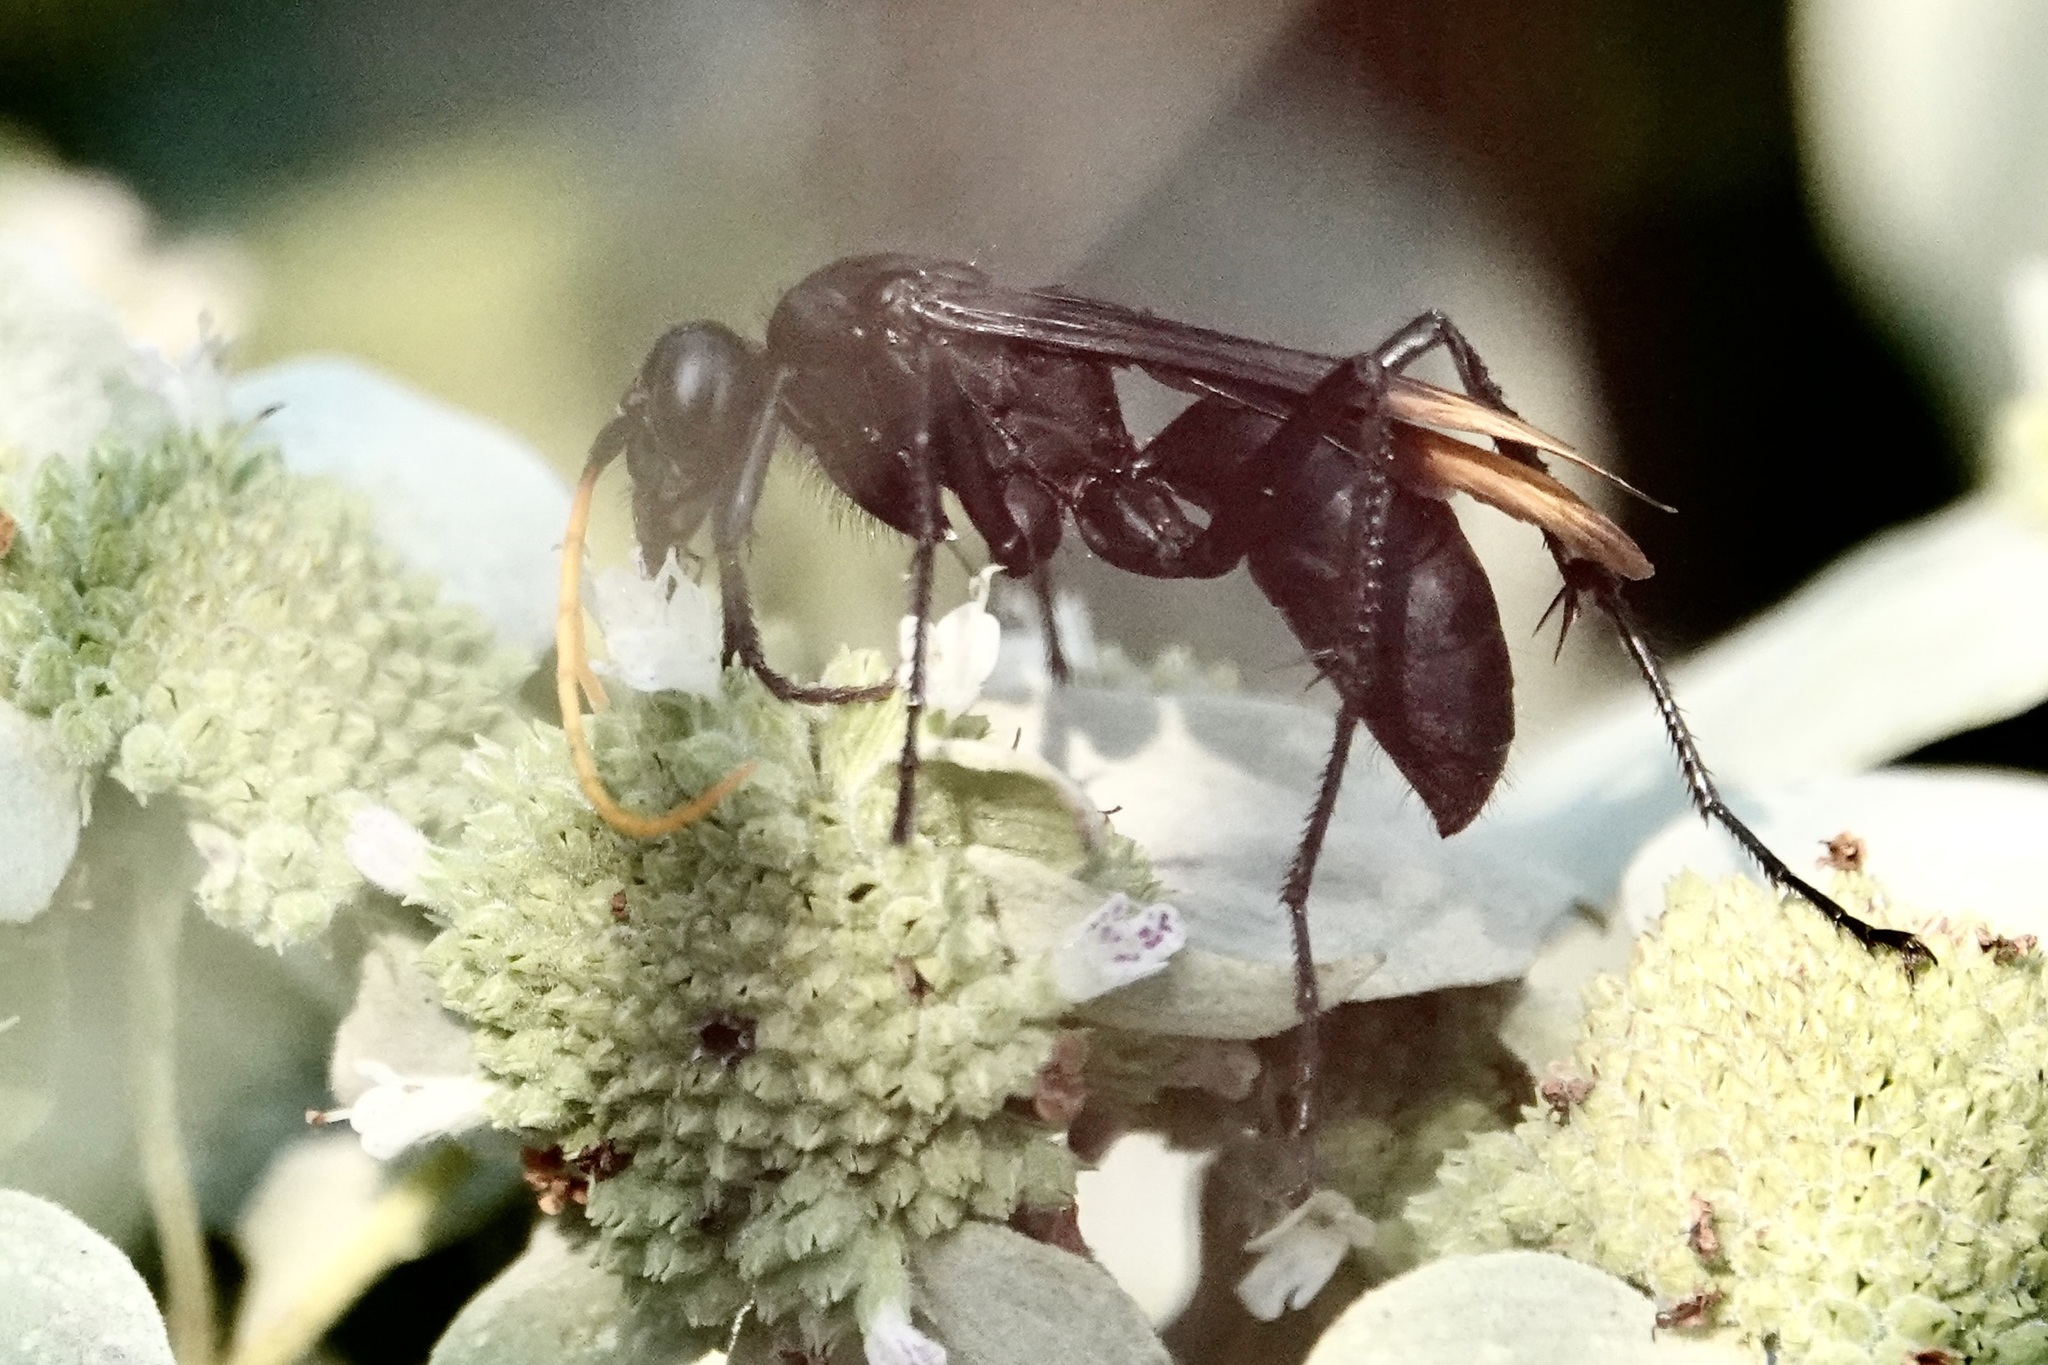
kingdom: Animalia
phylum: Arthropoda
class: Insecta
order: Hymenoptera
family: Pompilidae
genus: Entypus
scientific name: Entypus unifasciatus
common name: Eastern tawny-horned spider wasp
